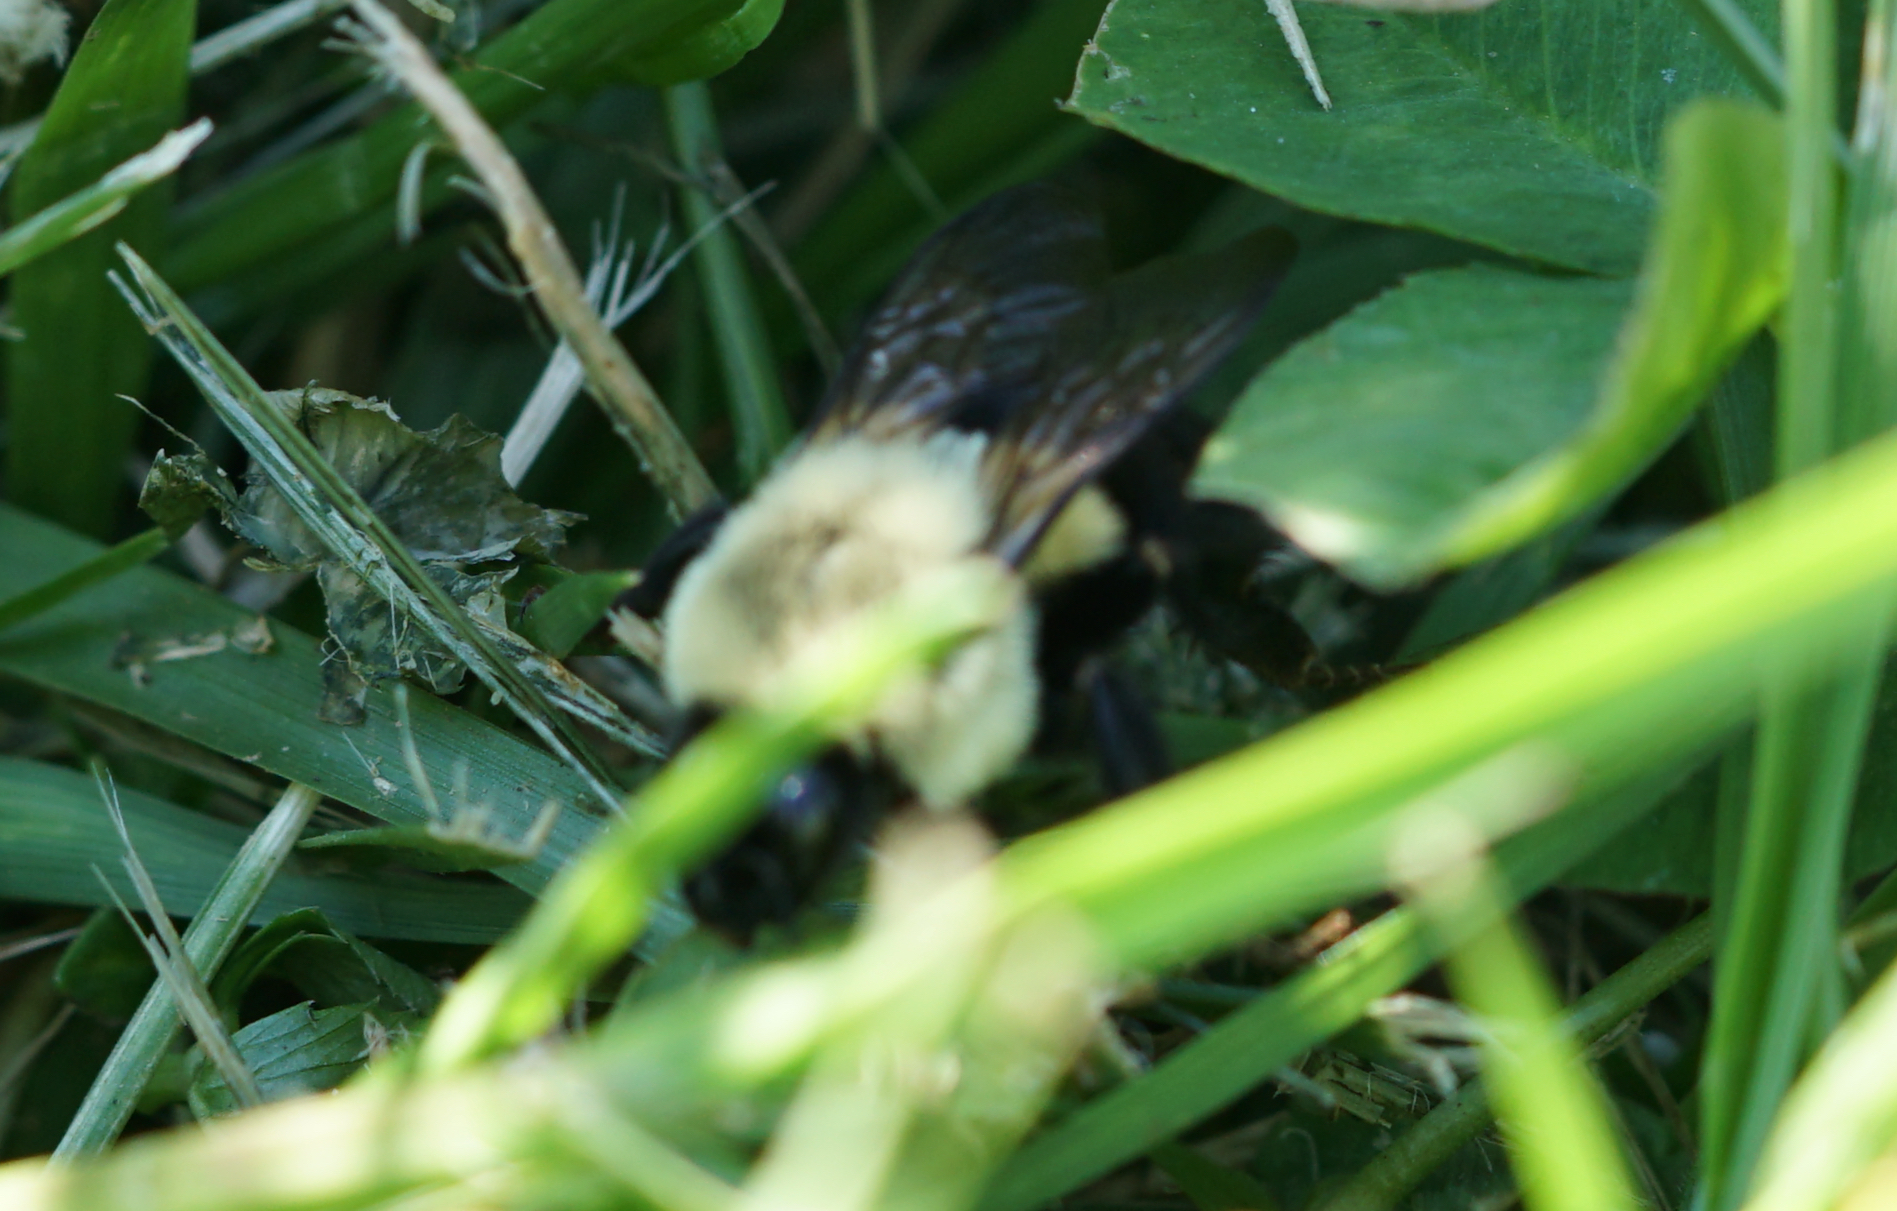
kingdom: Animalia
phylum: Arthropoda
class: Insecta
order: Hymenoptera
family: Apidae
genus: Bombus
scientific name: Bombus impatiens
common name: Common eastern bumble bee
